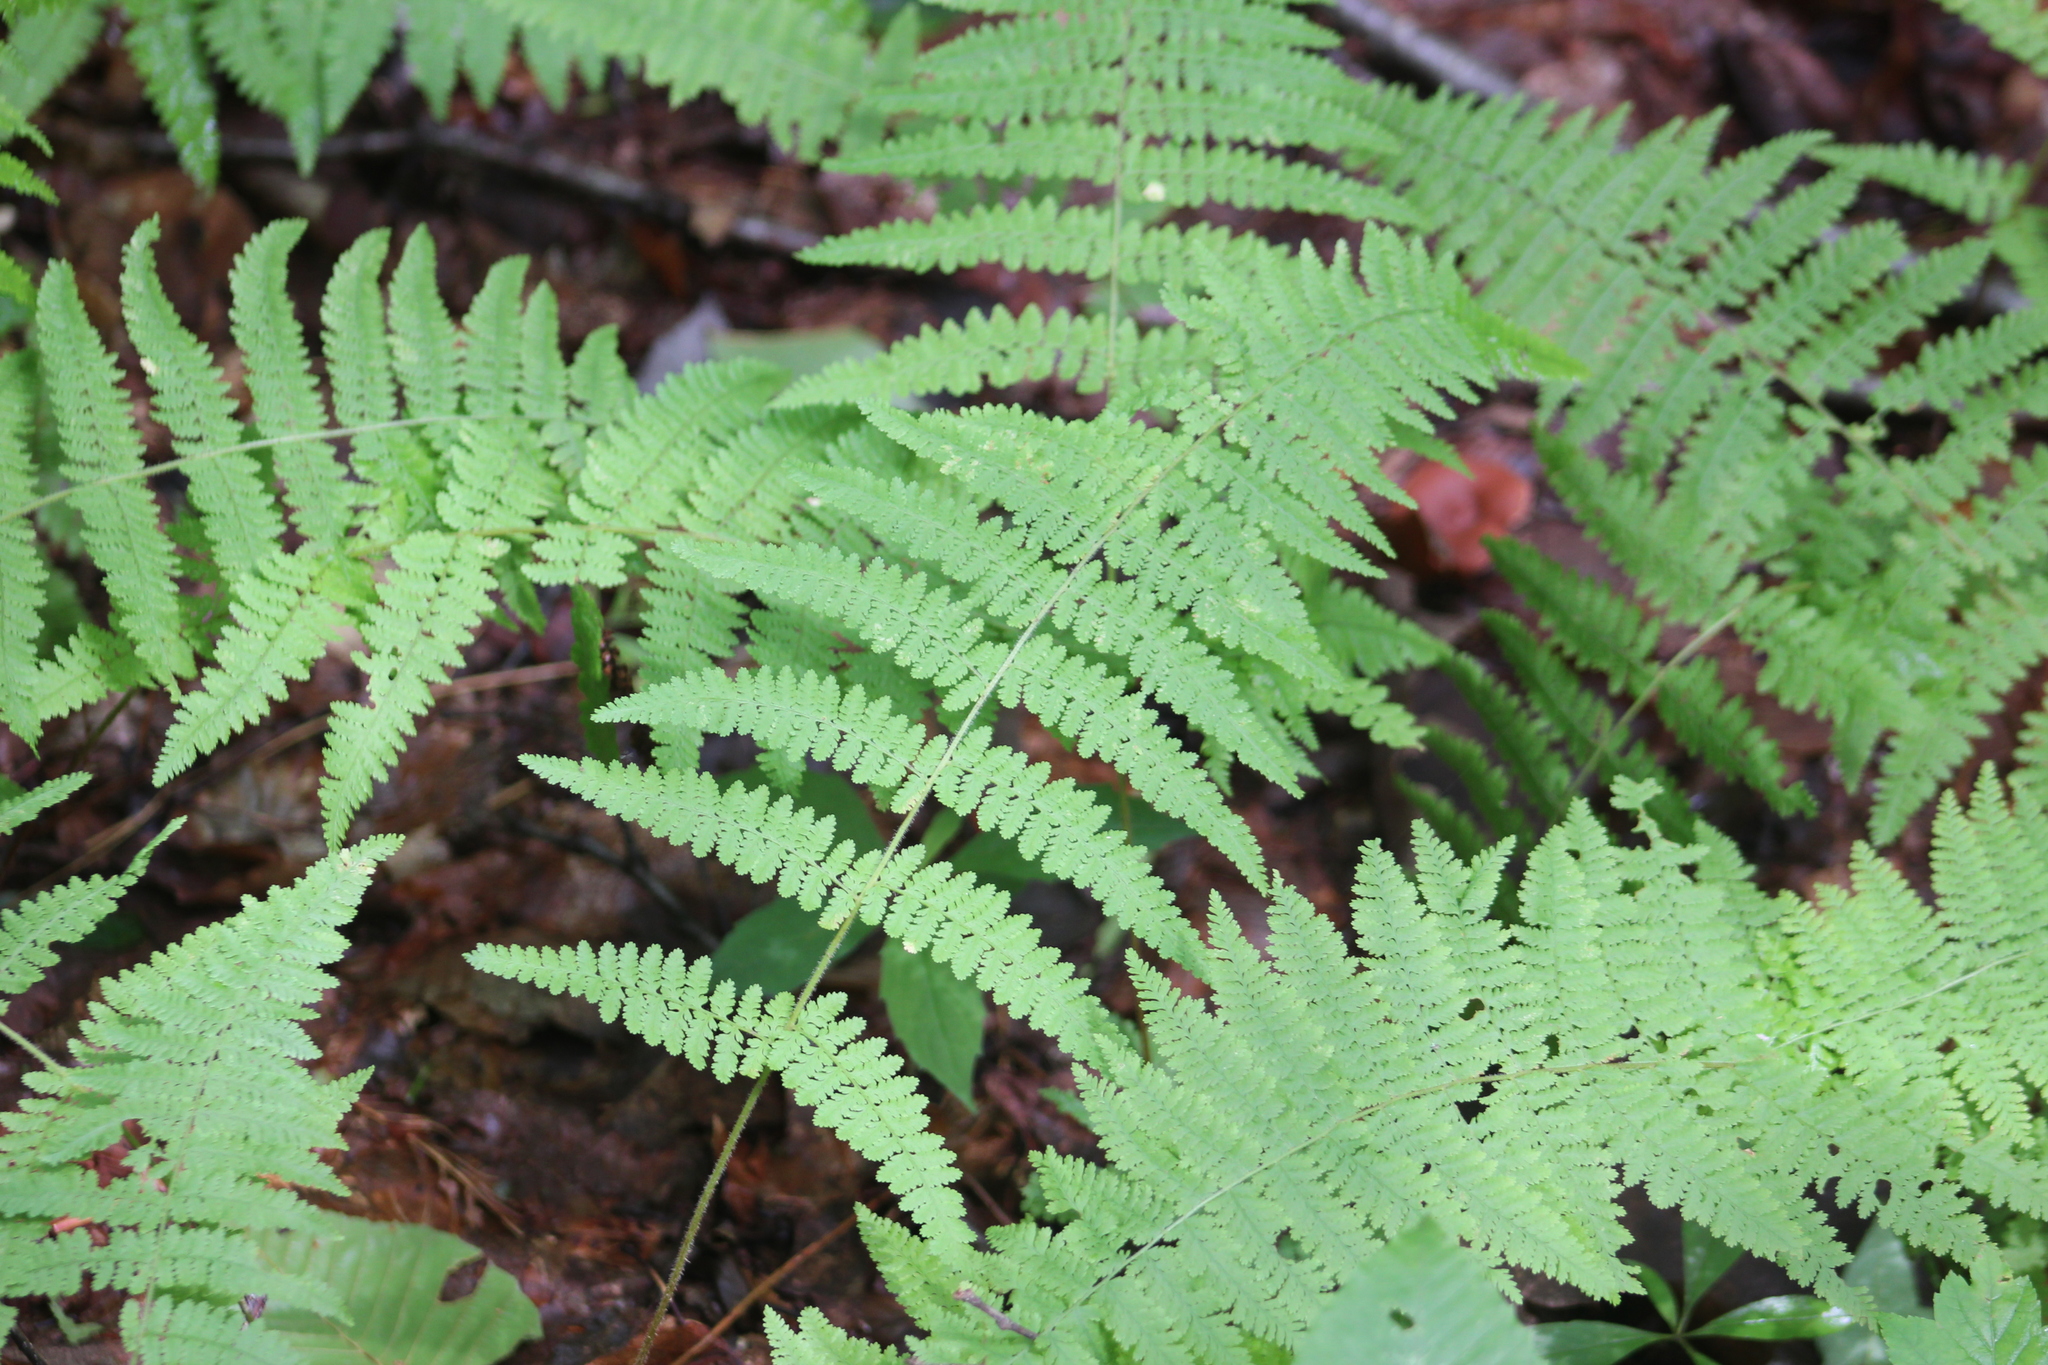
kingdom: Plantae
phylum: Tracheophyta
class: Polypodiopsida
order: Polypodiales
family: Dennstaedtiaceae
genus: Sitobolium
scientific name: Sitobolium punctilobum
